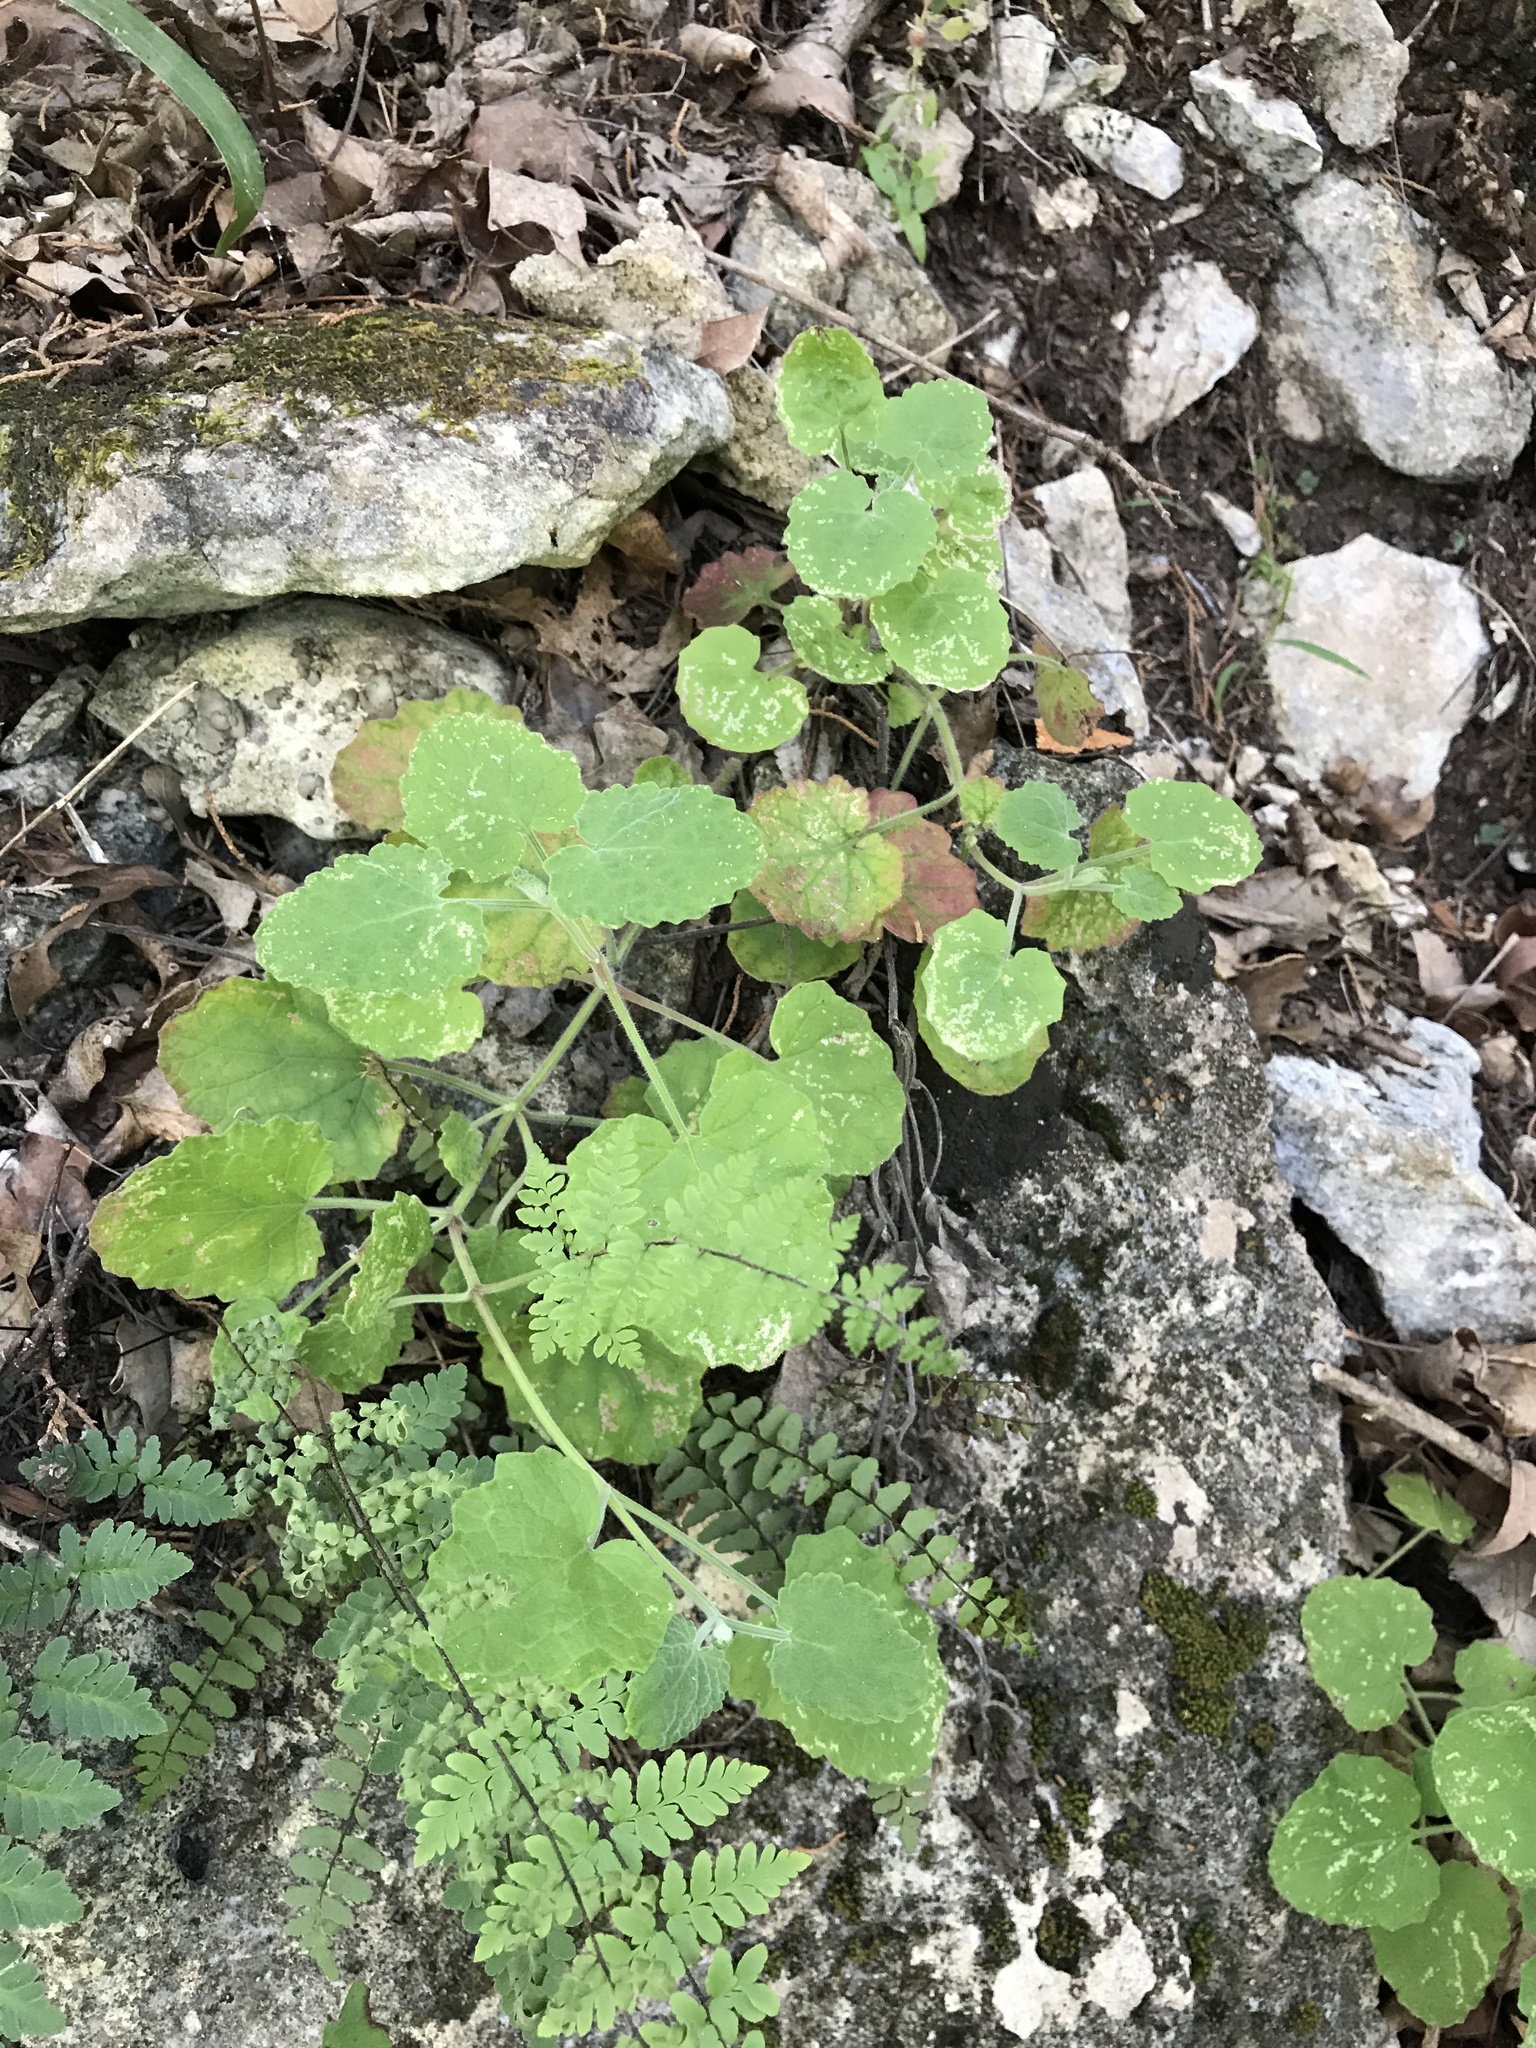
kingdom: Plantae
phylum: Tracheophyta
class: Magnoliopsida
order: Lamiales
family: Lamiaceae
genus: Salvia
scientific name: Salvia roemeriana
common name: Cedar sage
